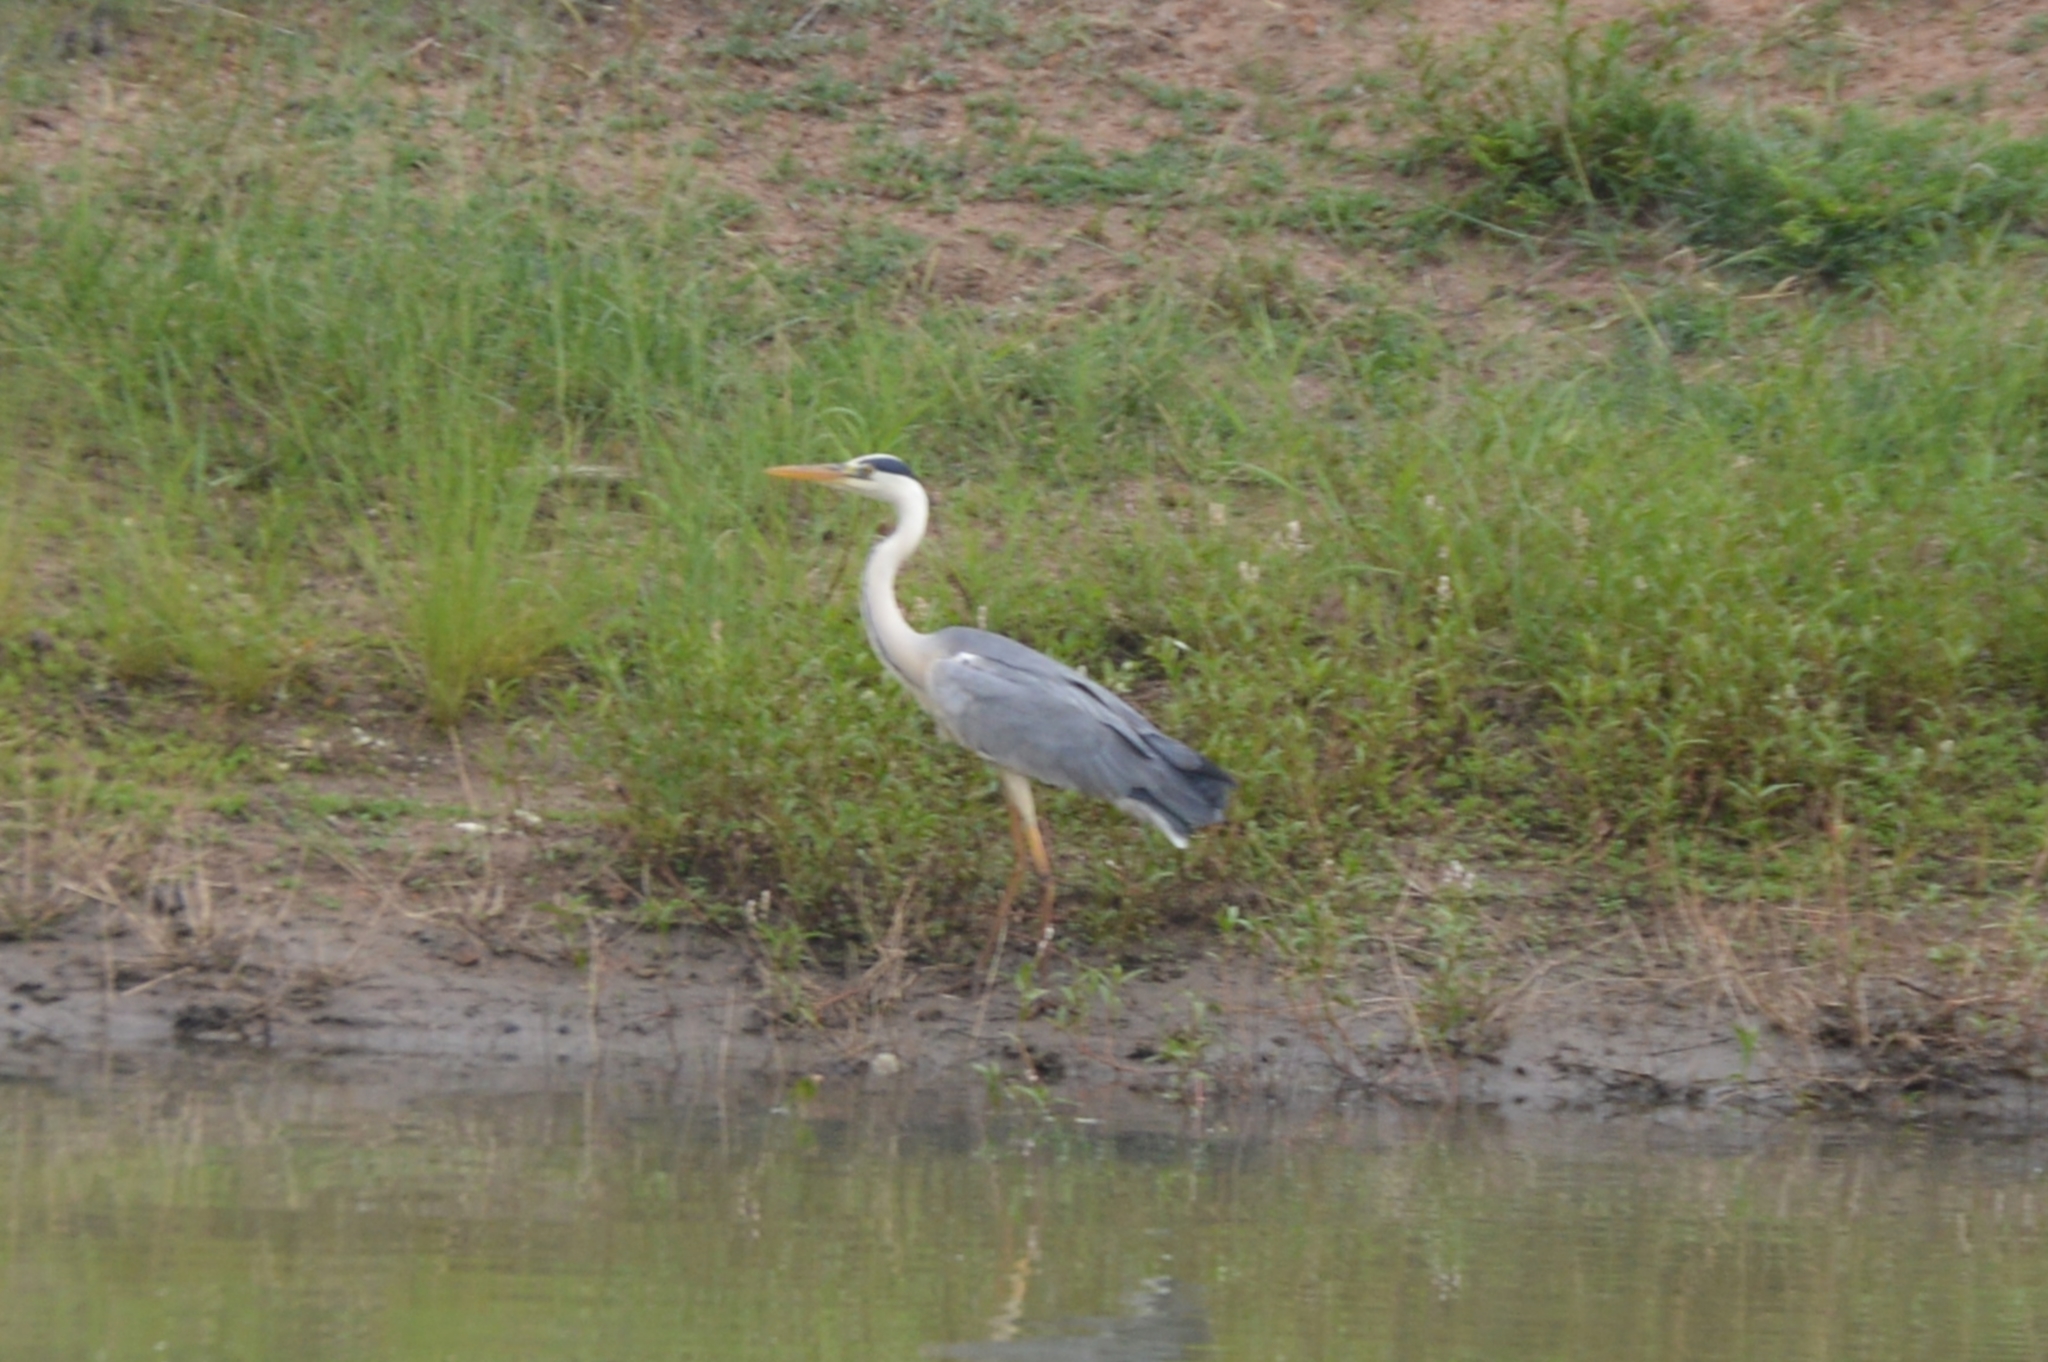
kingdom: Animalia
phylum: Chordata
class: Aves
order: Pelecaniformes
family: Ardeidae
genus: Ardea
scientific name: Ardea cinerea
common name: Grey heron
